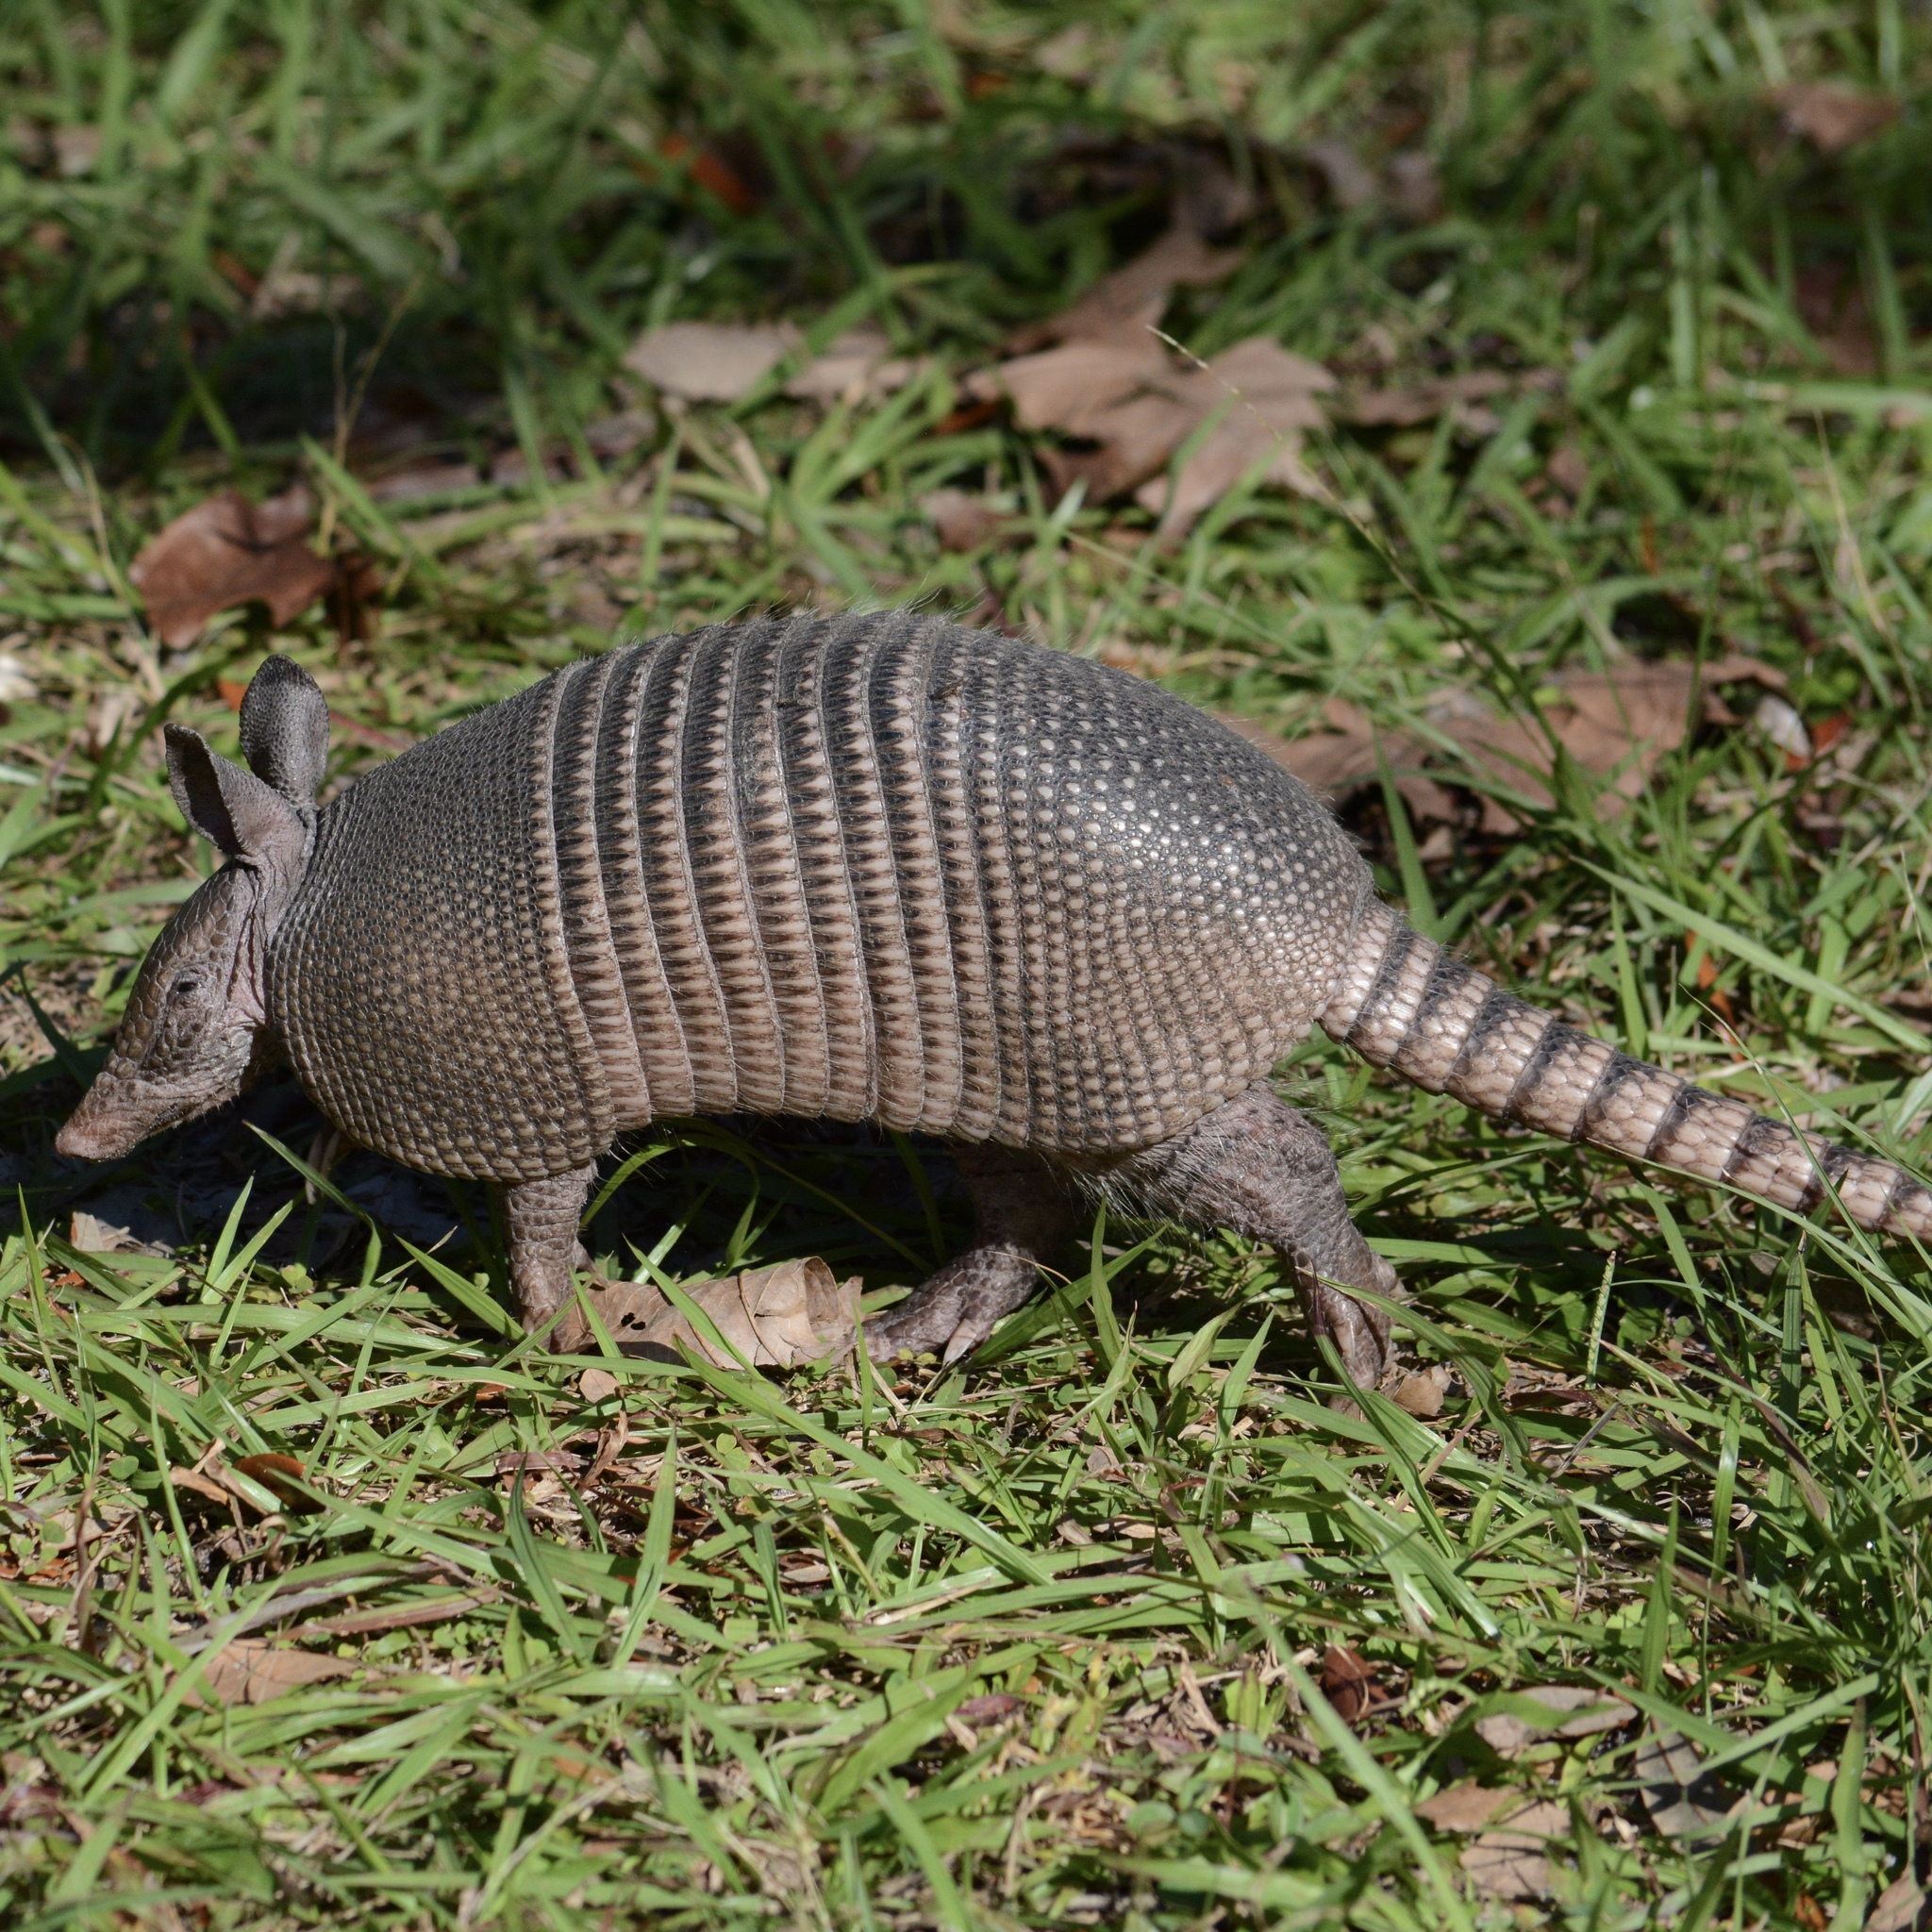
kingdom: Animalia
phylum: Chordata
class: Mammalia
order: Cingulata
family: Dasypodidae
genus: Dasypus
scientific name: Dasypus novemcinctus
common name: Nine-banded armadillo
